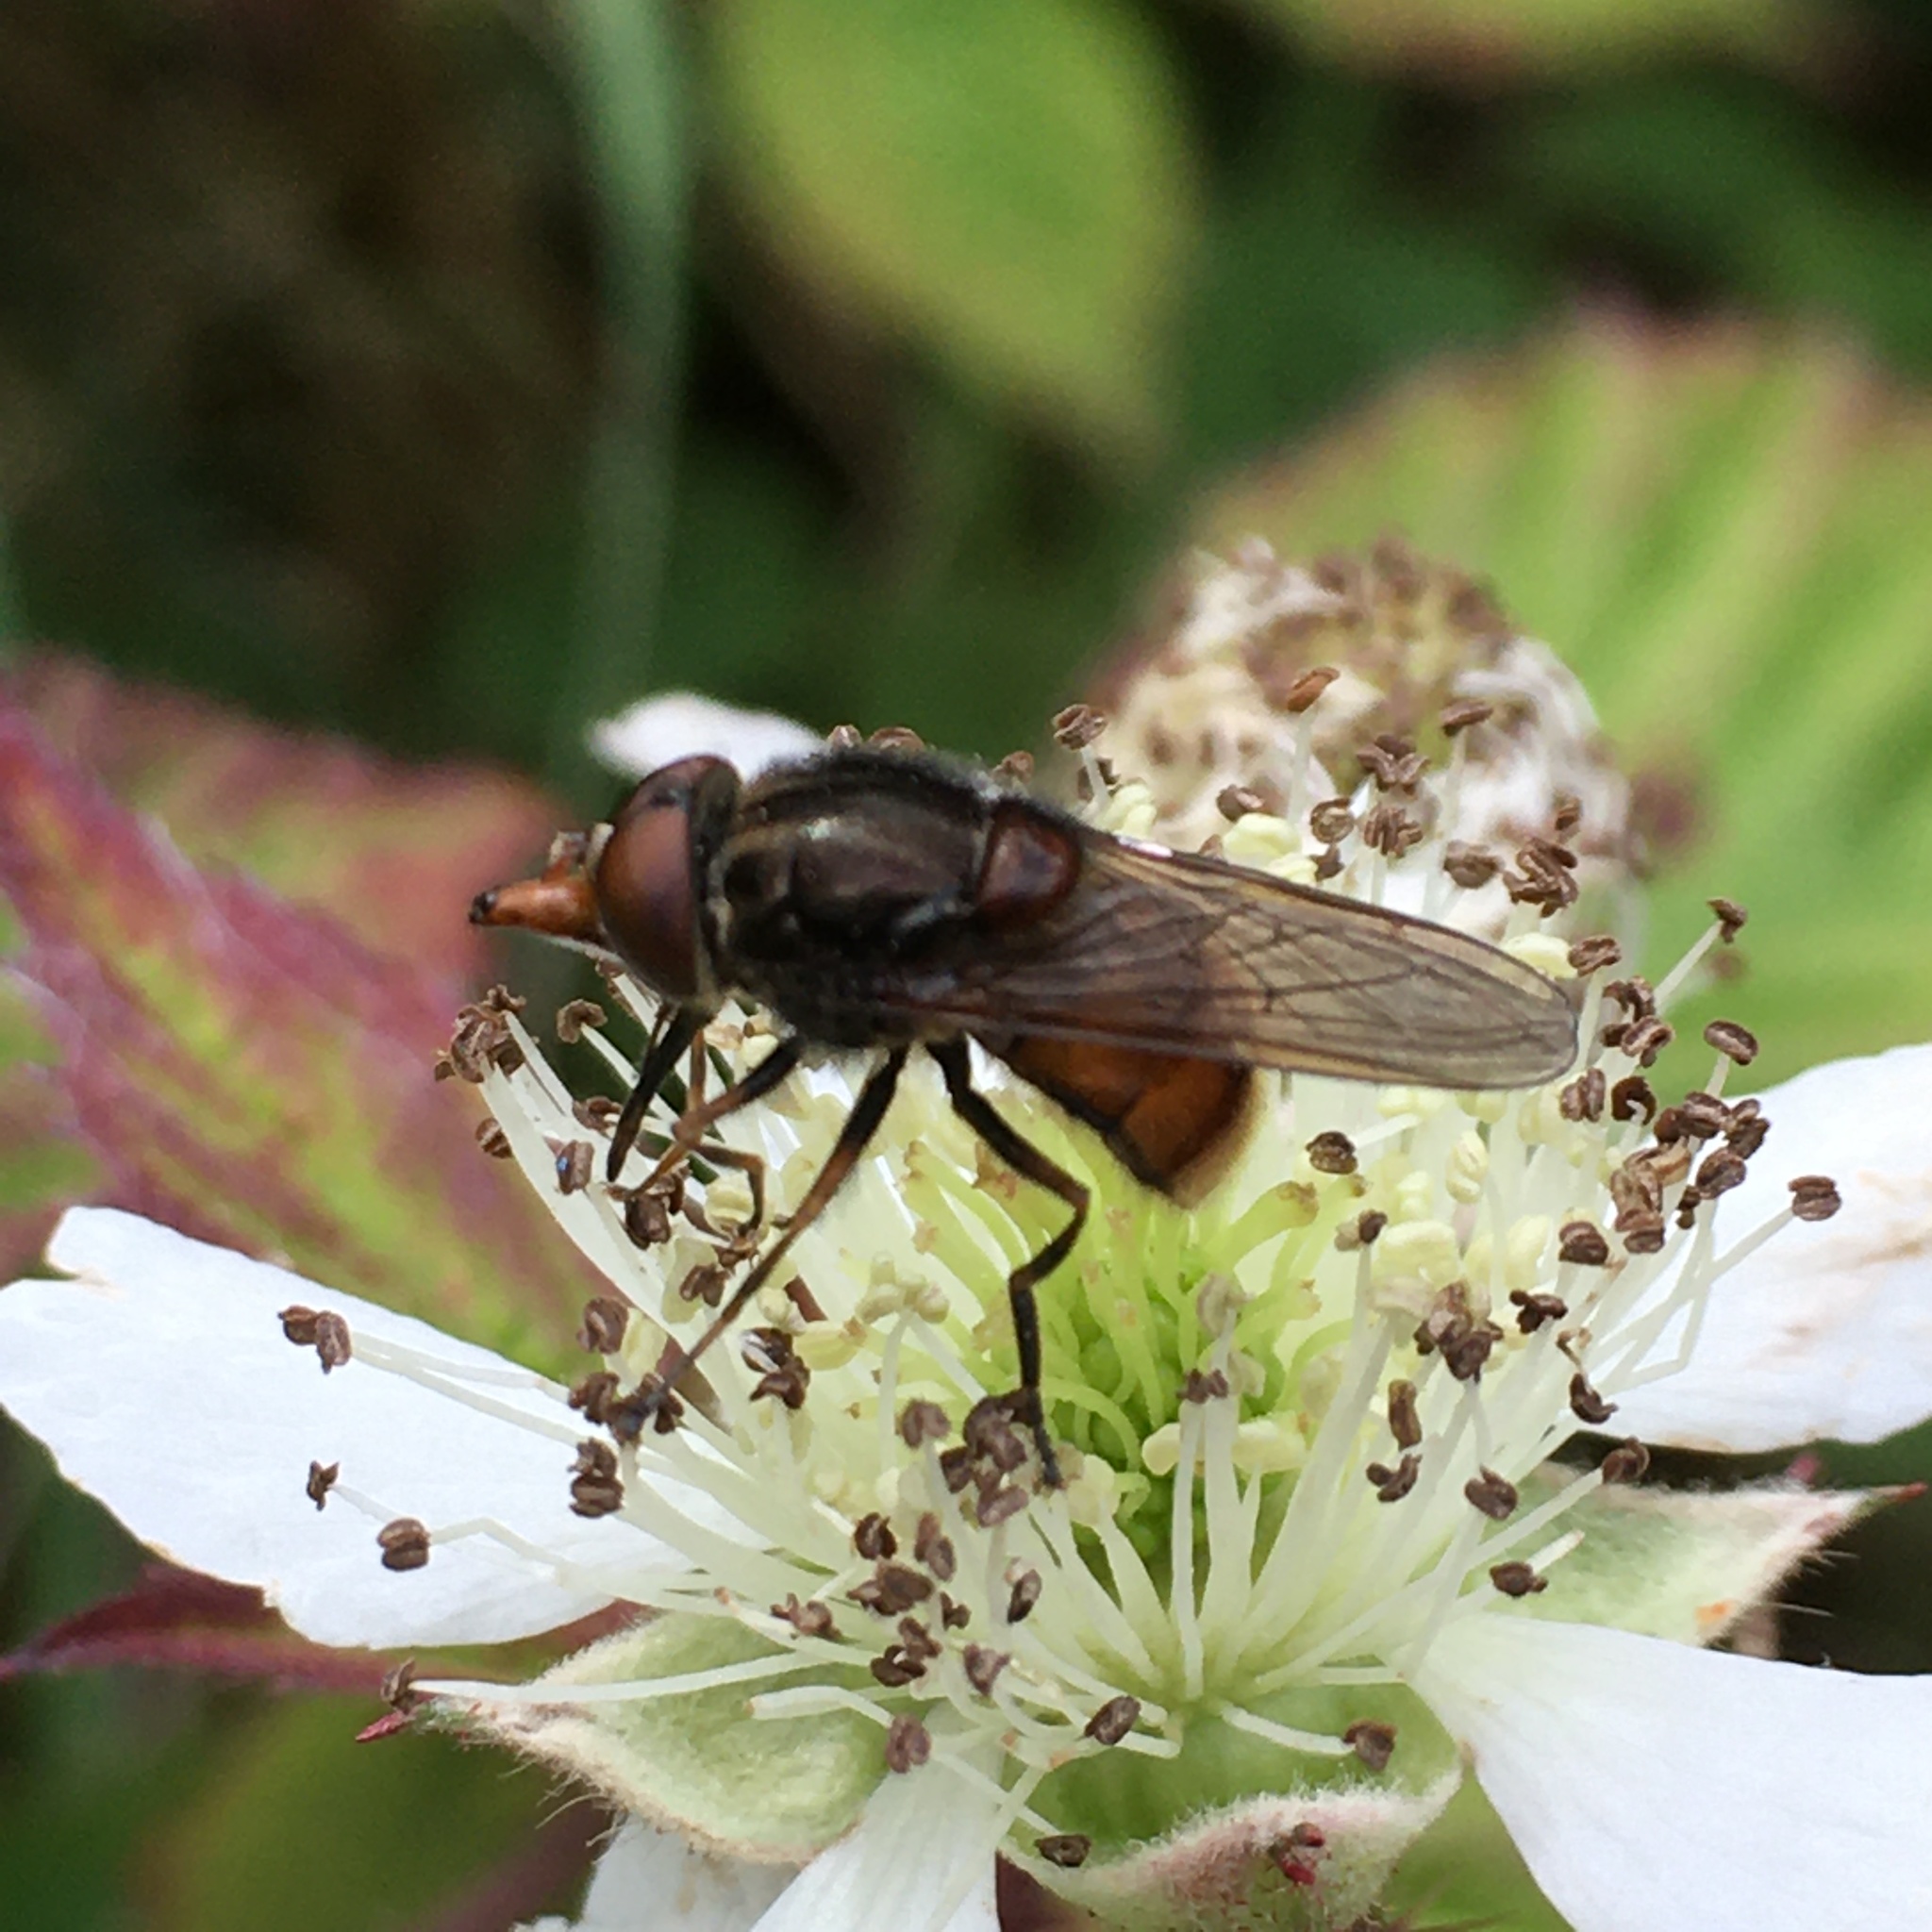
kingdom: Animalia
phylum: Arthropoda
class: Insecta
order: Diptera
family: Syrphidae
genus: Rhingia
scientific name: Rhingia campestris
